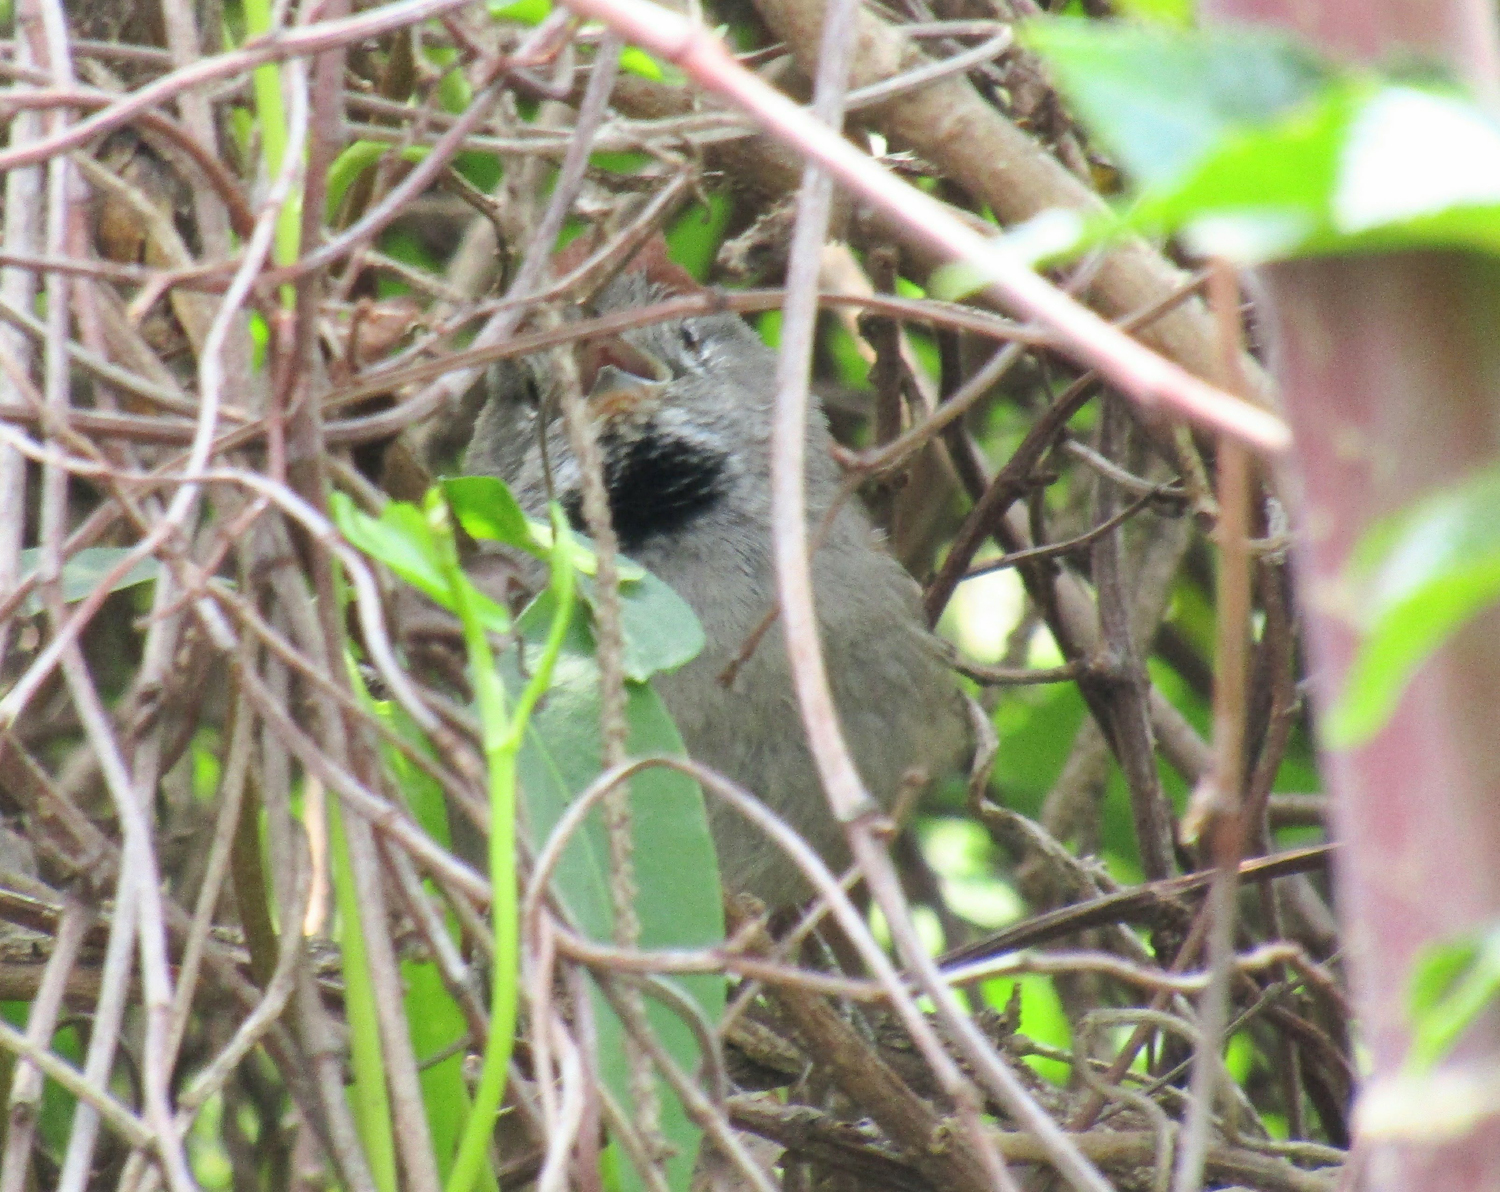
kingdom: Animalia
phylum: Chordata
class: Aves
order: Passeriformes
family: Furnariidae
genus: Synallaxis
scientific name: Synallaxis frontalis
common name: Sooty-fronted spinetail
